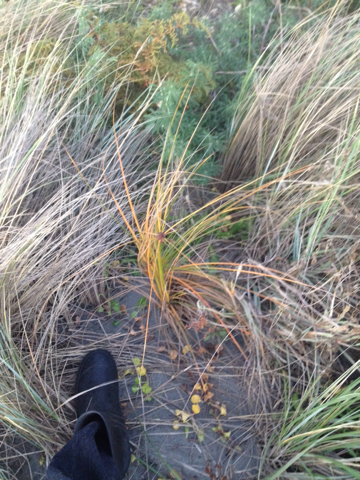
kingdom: Plantae
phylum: Tracheophyta
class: Liliopsida
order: Poales
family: Cyperaceae
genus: Ficinia
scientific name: Ficinia spiralis
